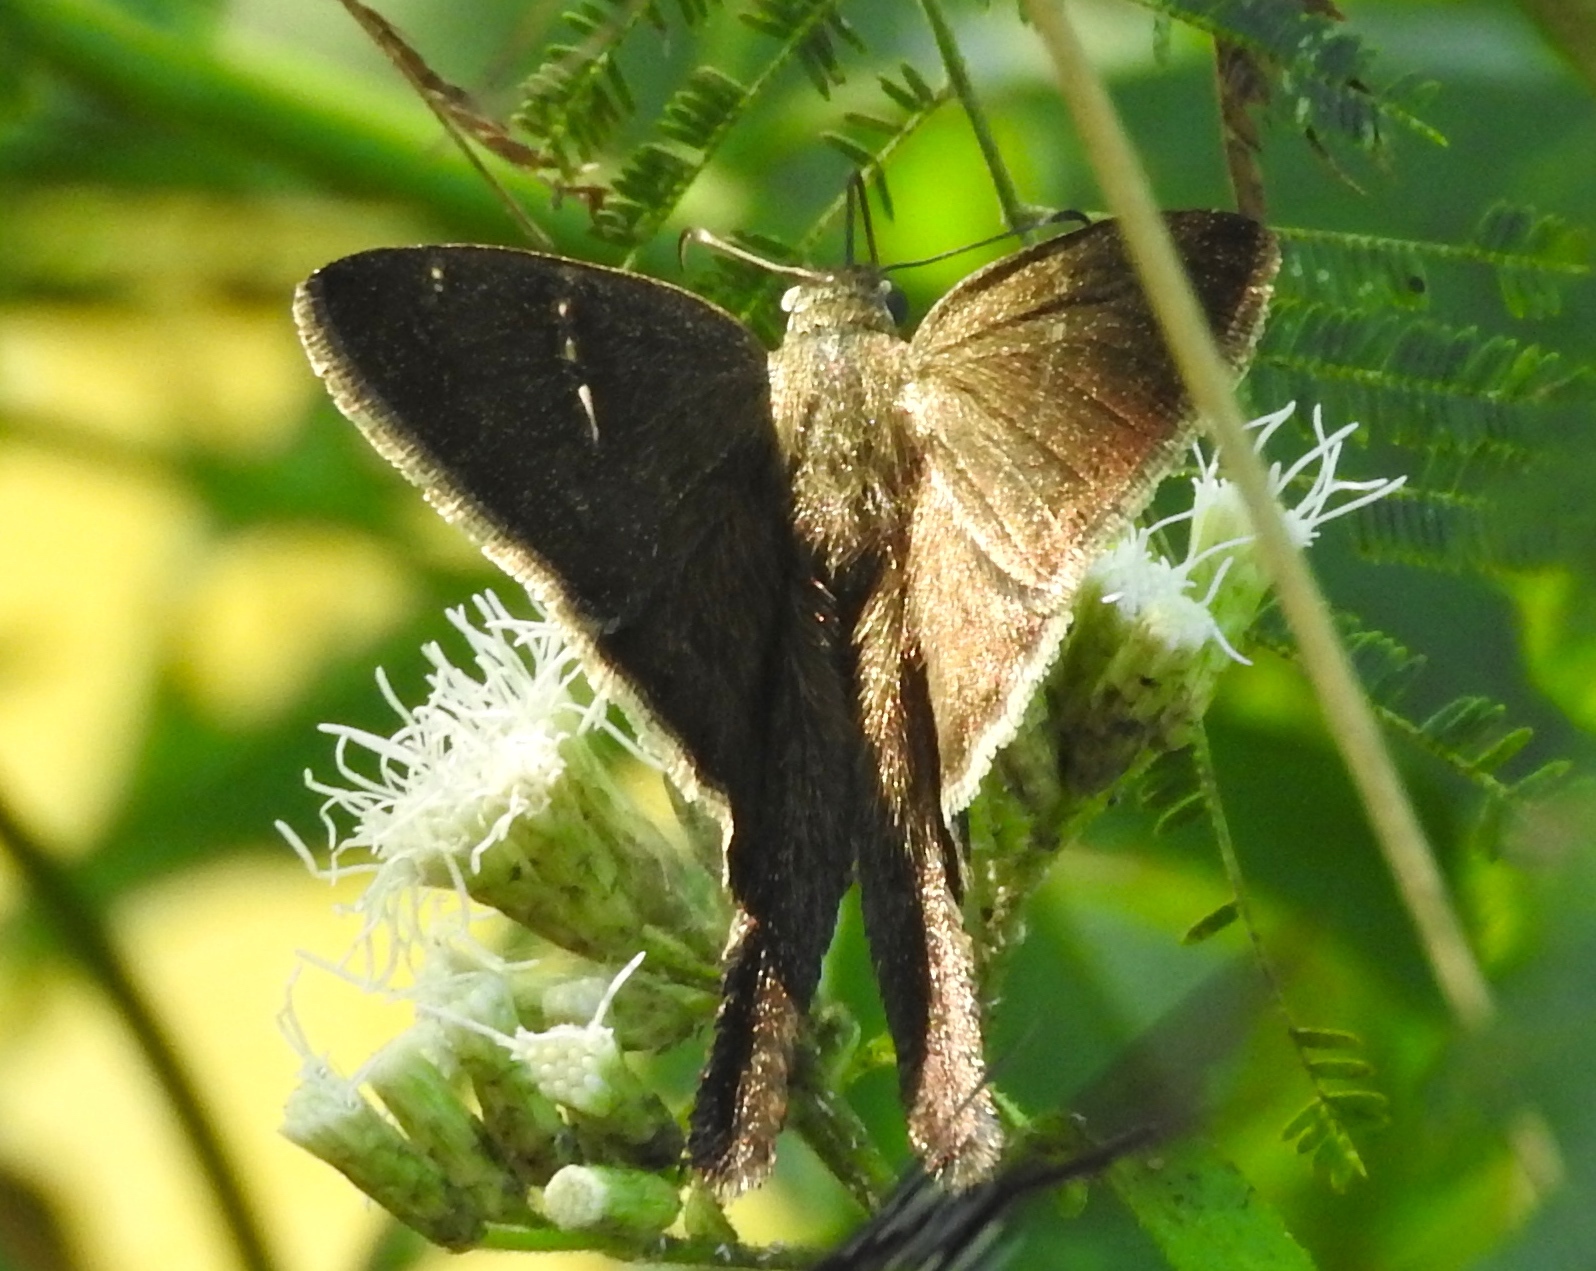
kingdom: Animalia
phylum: Arthropoda
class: Insecta
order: Lepidoptera
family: Hesperiidae
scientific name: Hesperiidae
